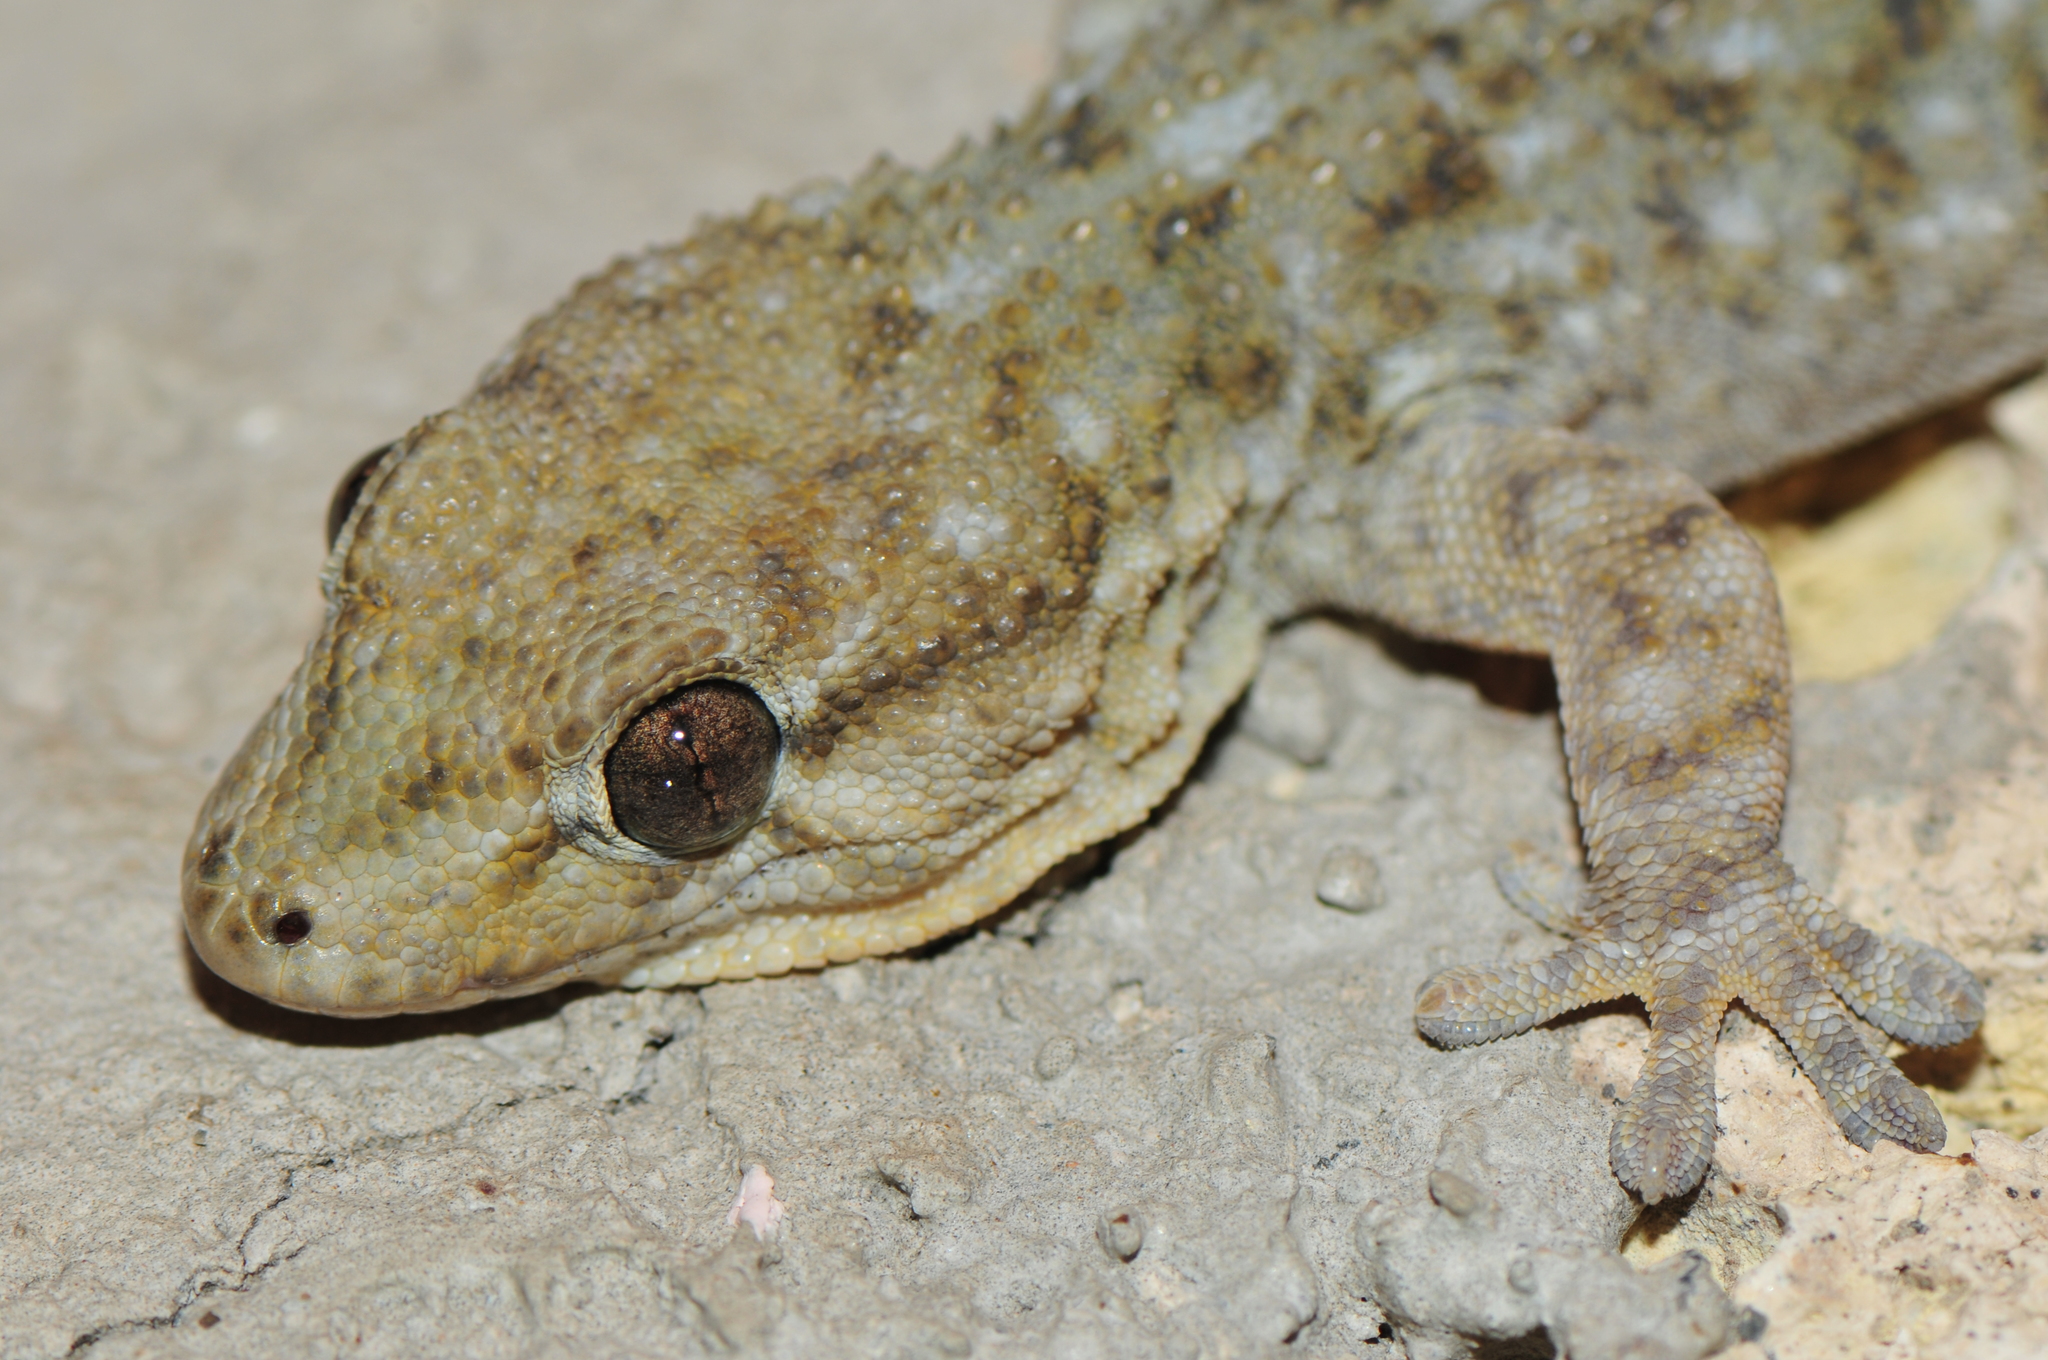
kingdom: Animalia
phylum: Chordata
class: Squamata
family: Phyllodactylidae
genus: Tarentola
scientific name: Tarentola delalandii
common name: Tenerife wall gecko
